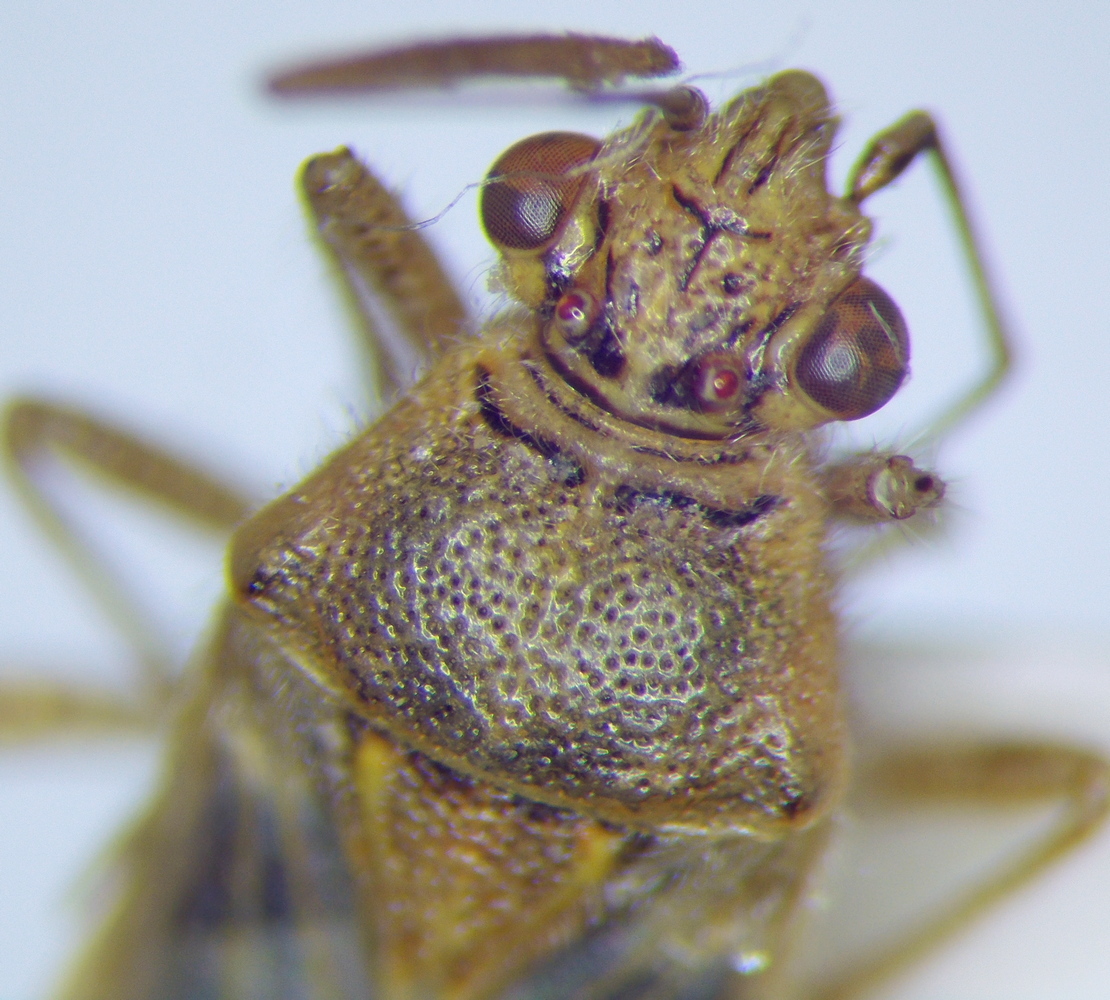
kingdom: Animalia
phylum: Arthropoda
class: Insecta
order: Hemiptera
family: Rhopalidae
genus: Liorhyssus
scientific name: Liorhyssus hyalinus
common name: Scentless plant bug
